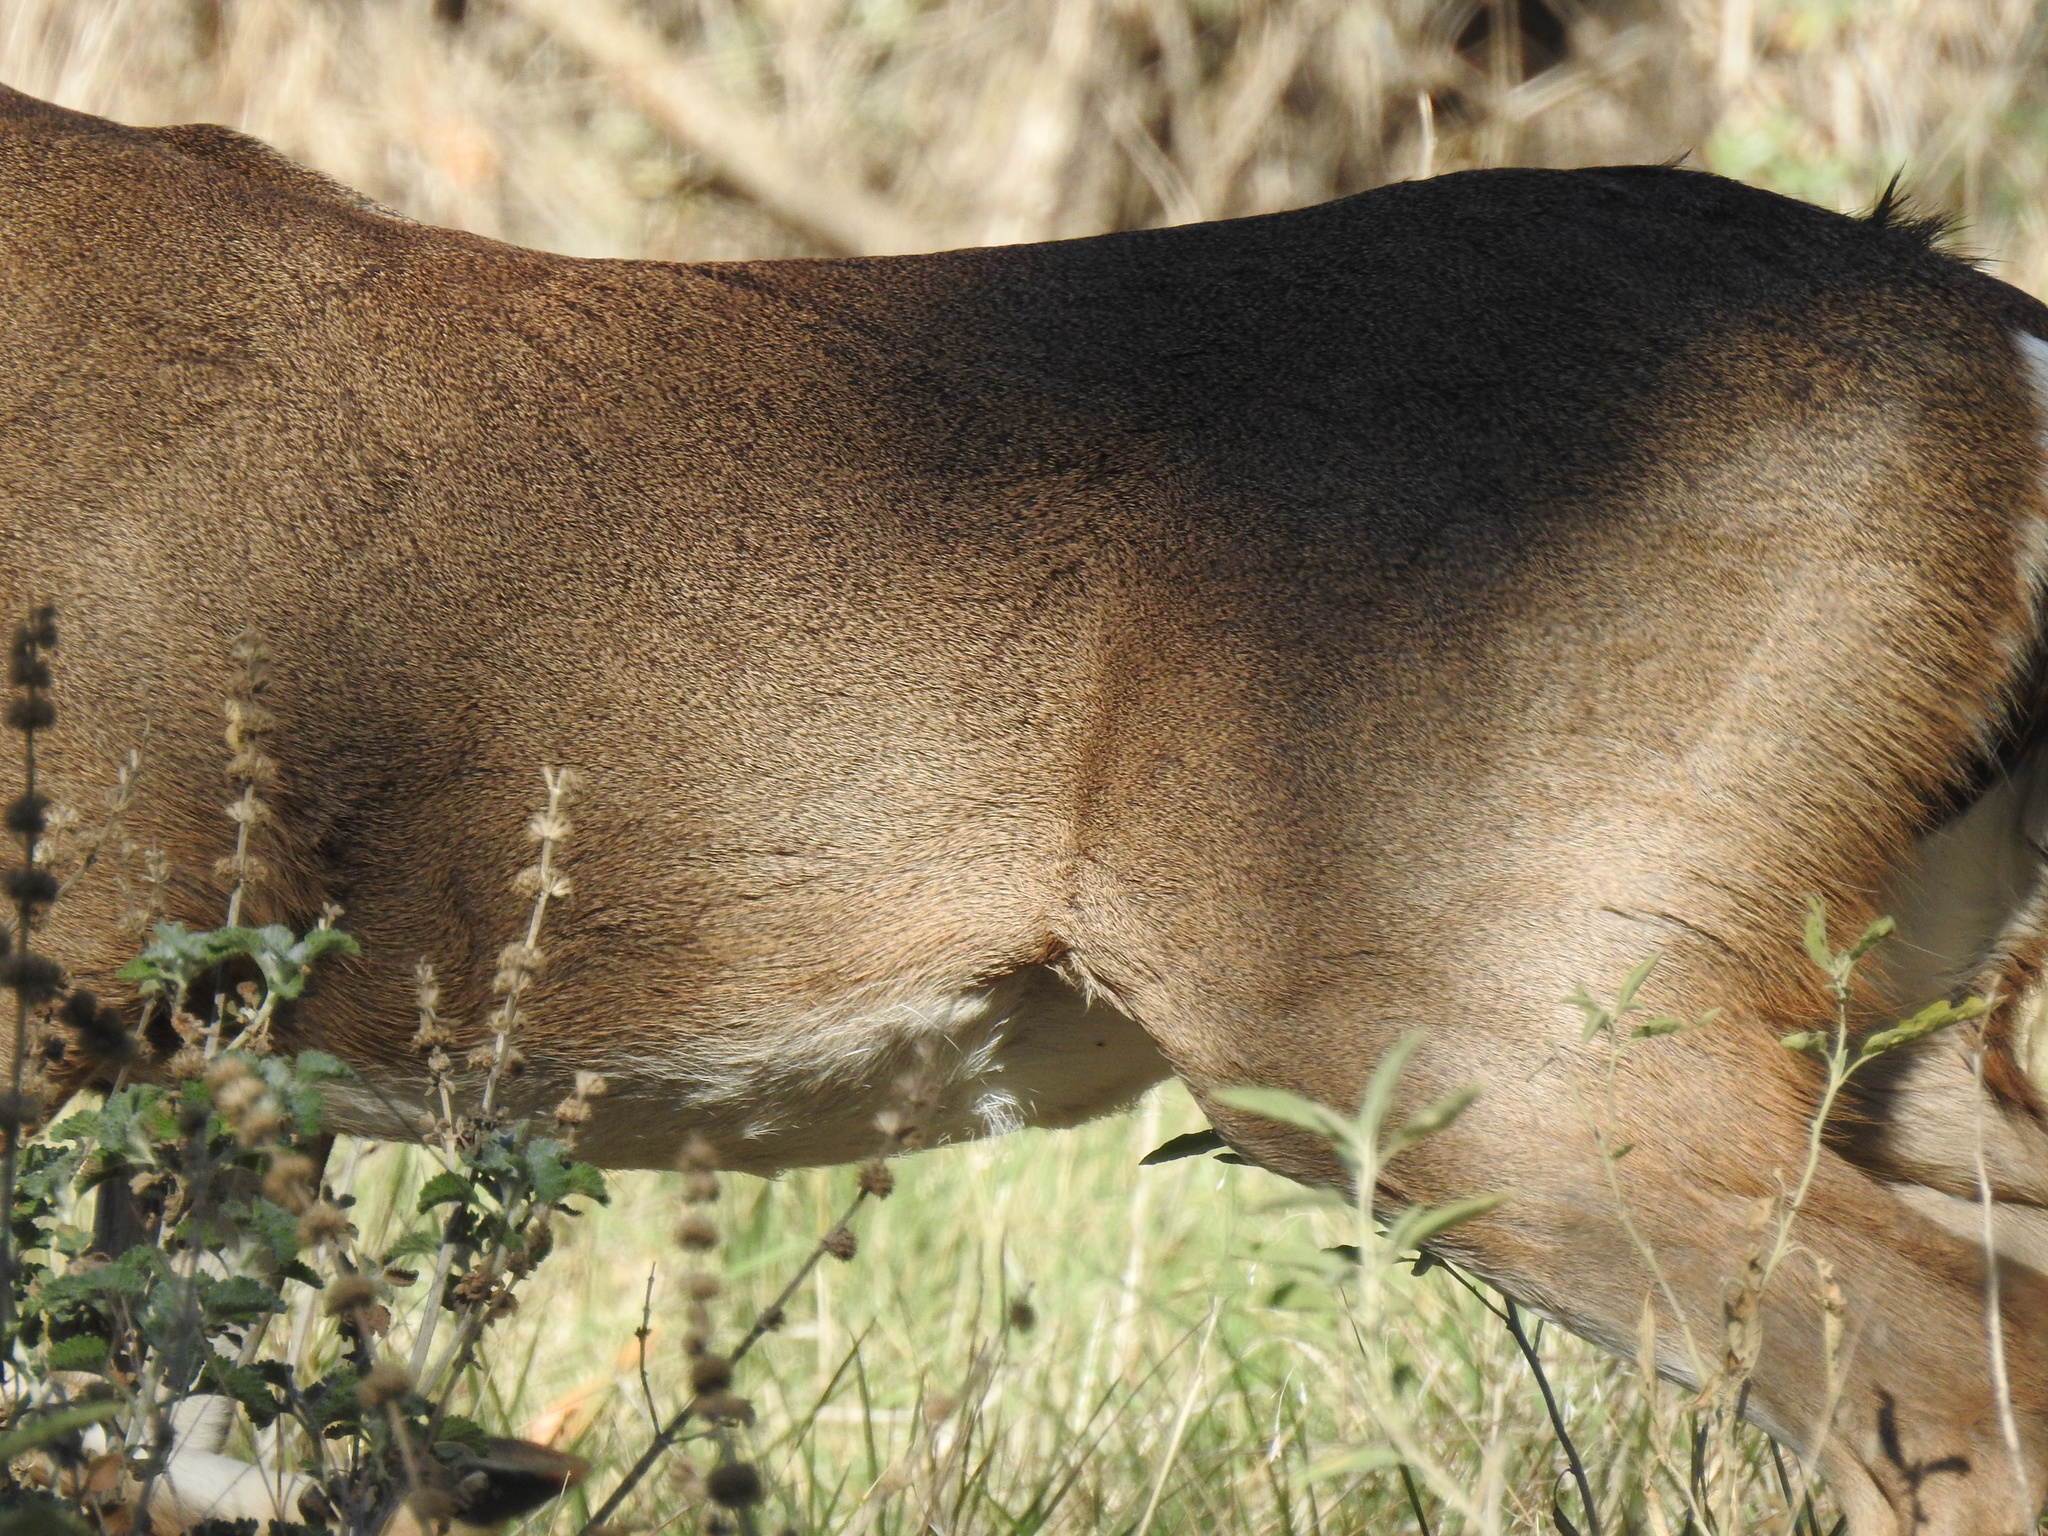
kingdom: Animalia
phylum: Chordata
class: Mammalia
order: Artiodactyla
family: Cervidae
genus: Odocoileus
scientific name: Odocoileus virginianus
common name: White-tailed deer
